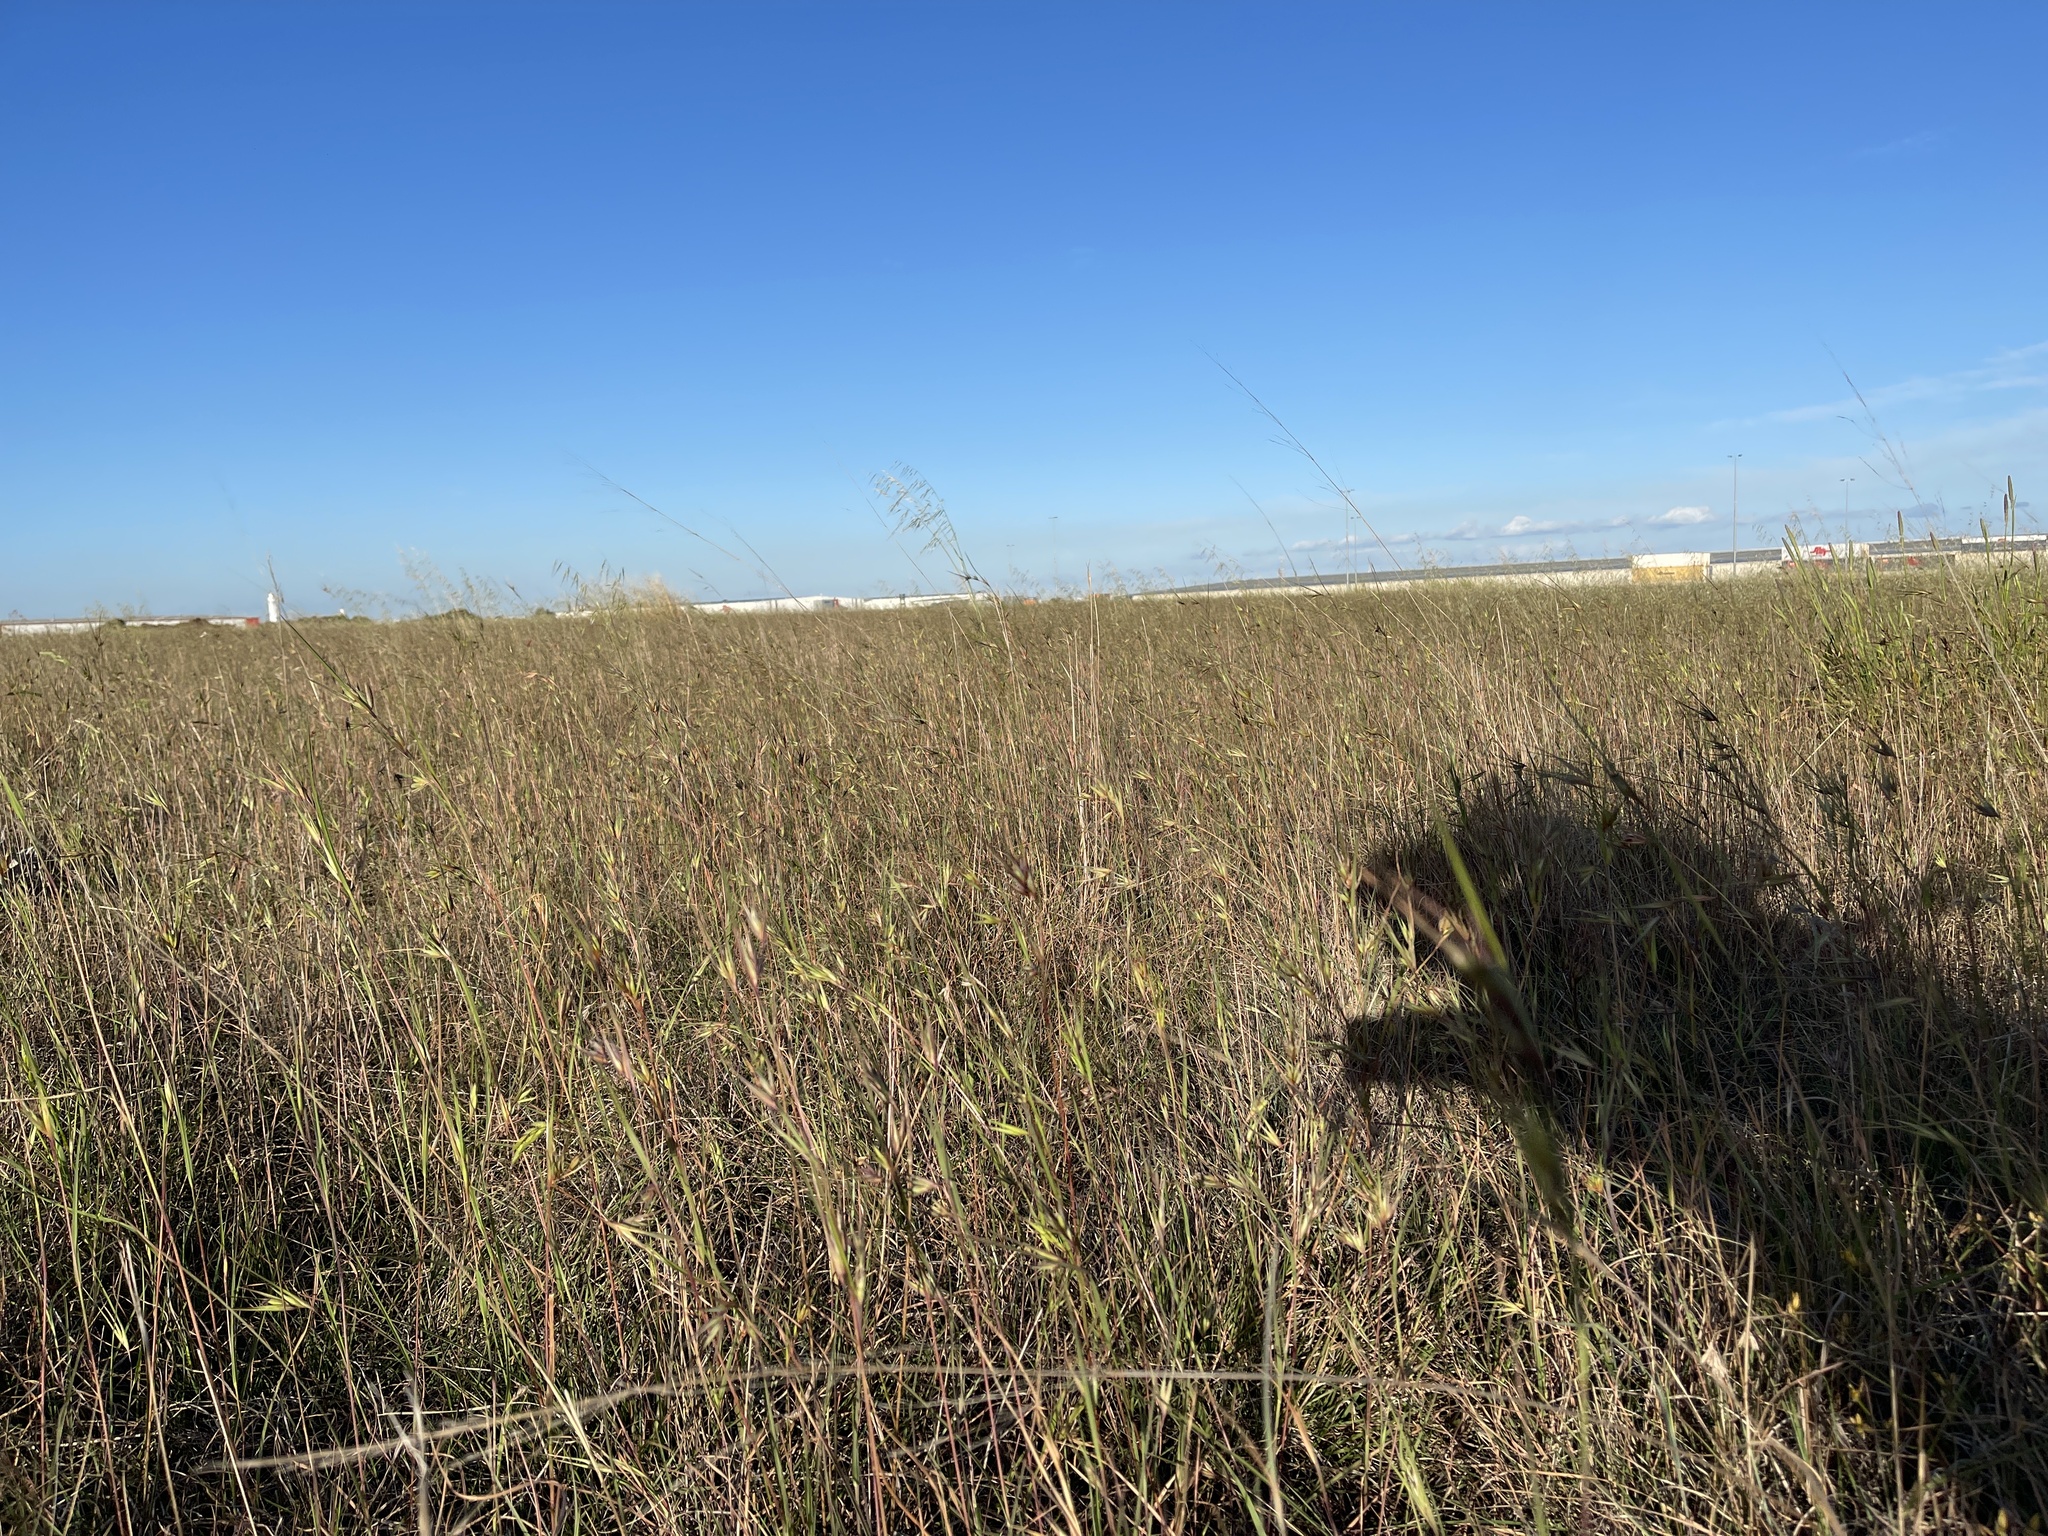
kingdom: Plantae
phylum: Tracheophyta
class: Liliopsida
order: Poales
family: Poaceae
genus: Themeda
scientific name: Themeda triandra
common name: Kangaroo grass
